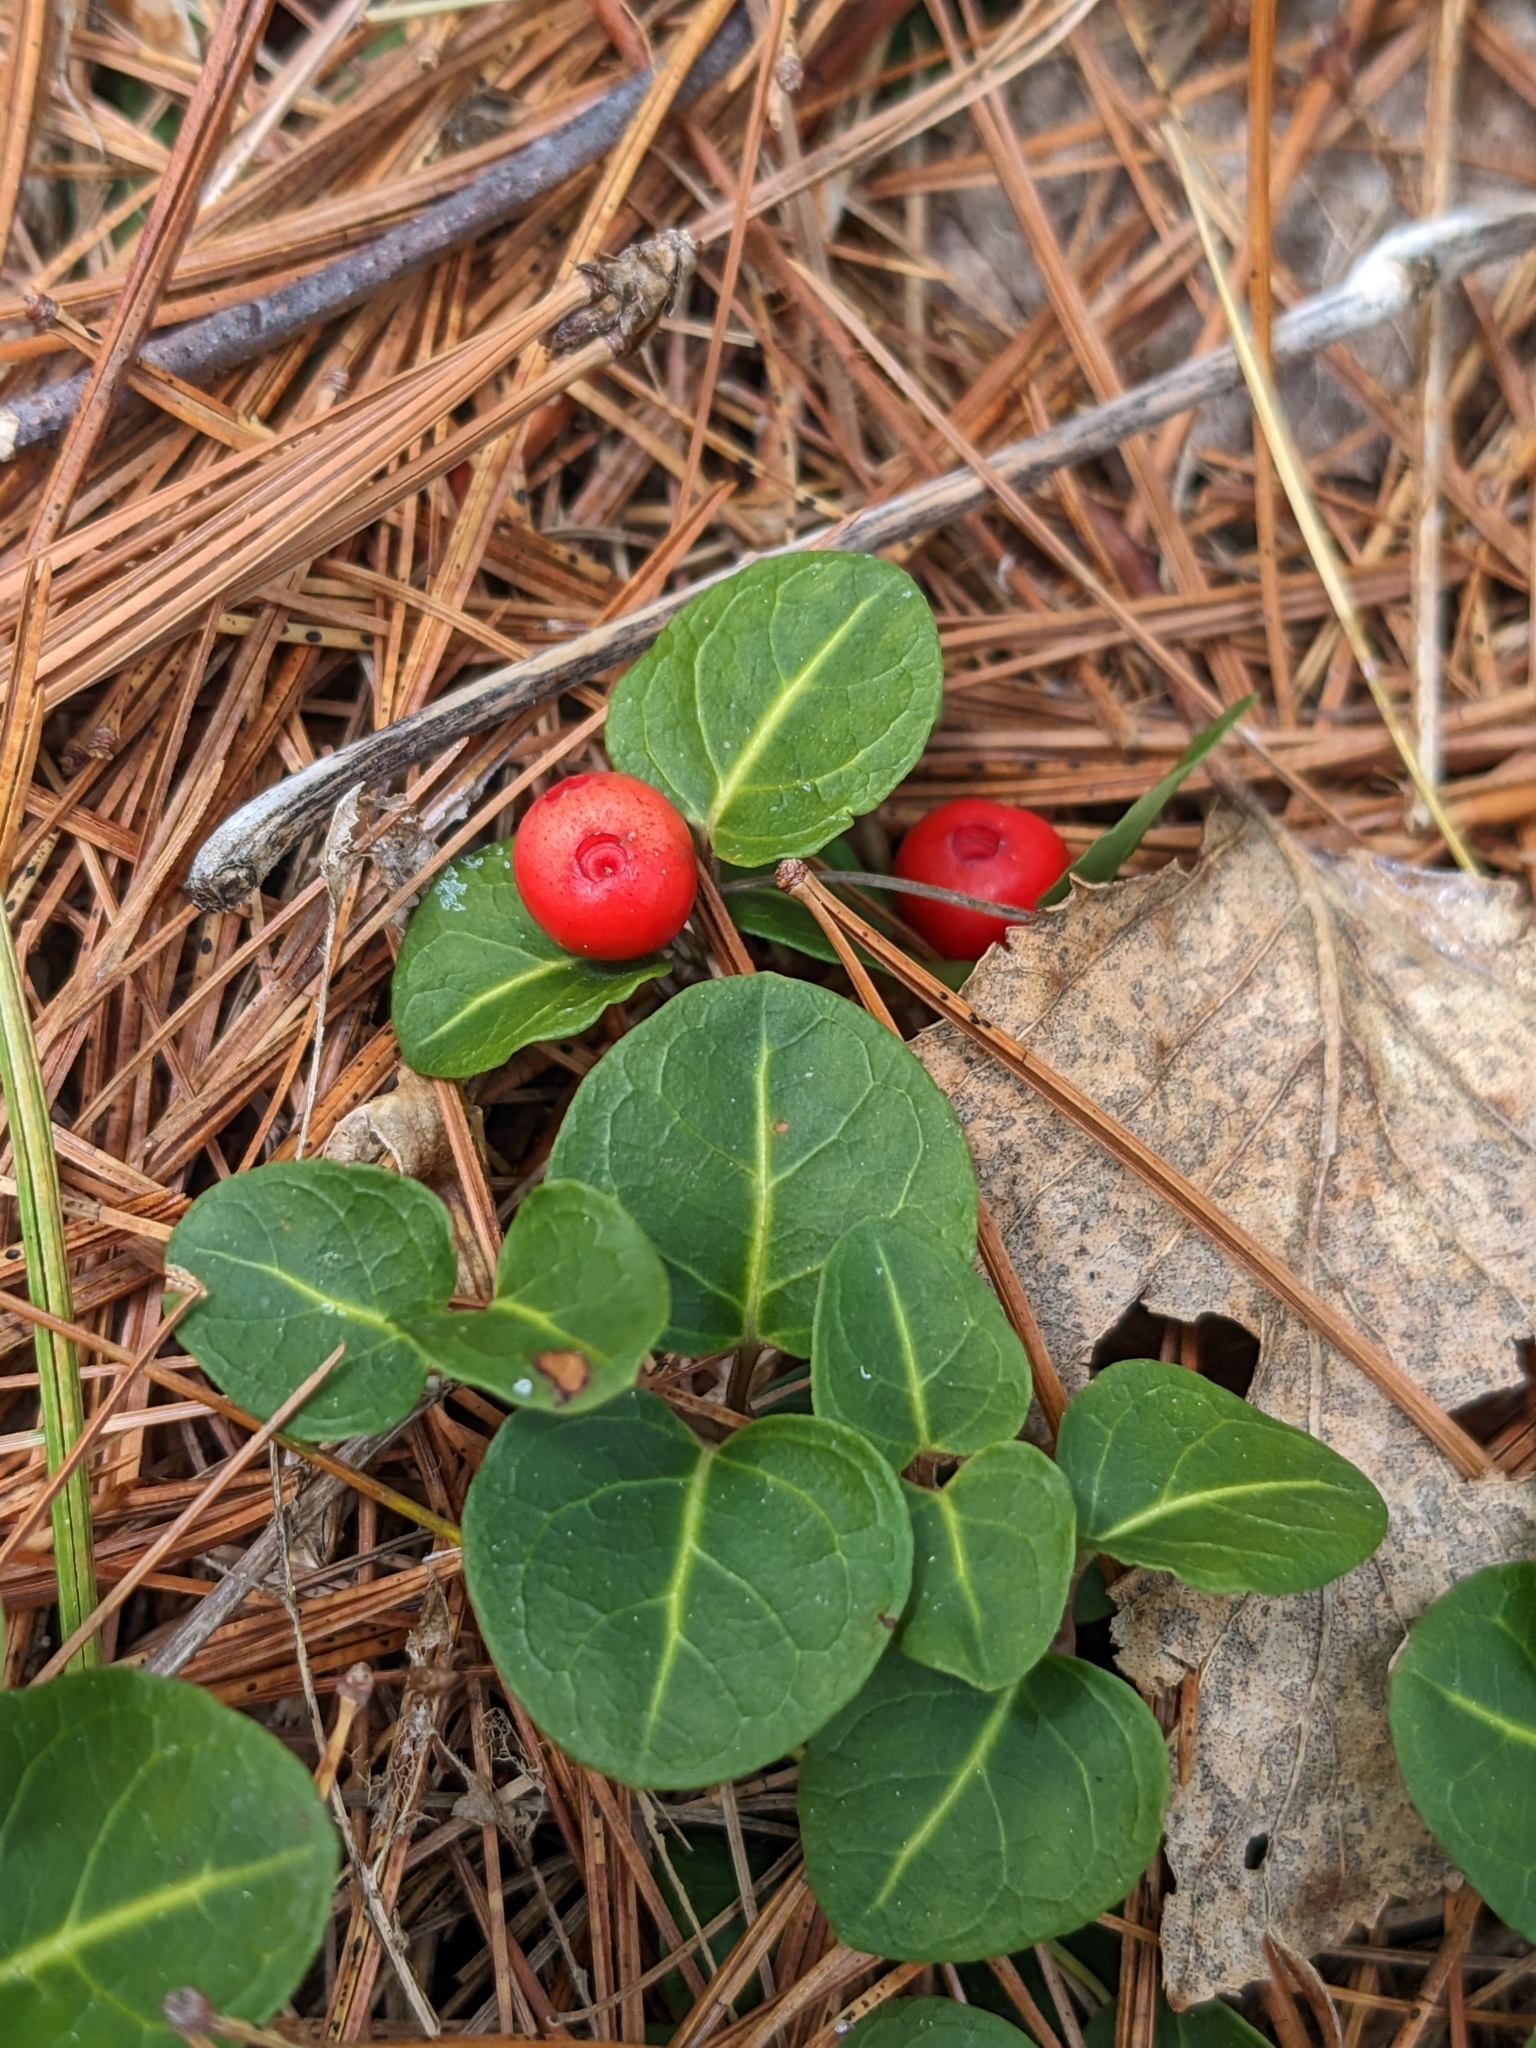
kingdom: Plantae
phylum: Tracheophyta
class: Magnoliopsida
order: Gentianales
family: Rubiaceae
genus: Mitchella
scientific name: Mitchella repens
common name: Partridge-berry
